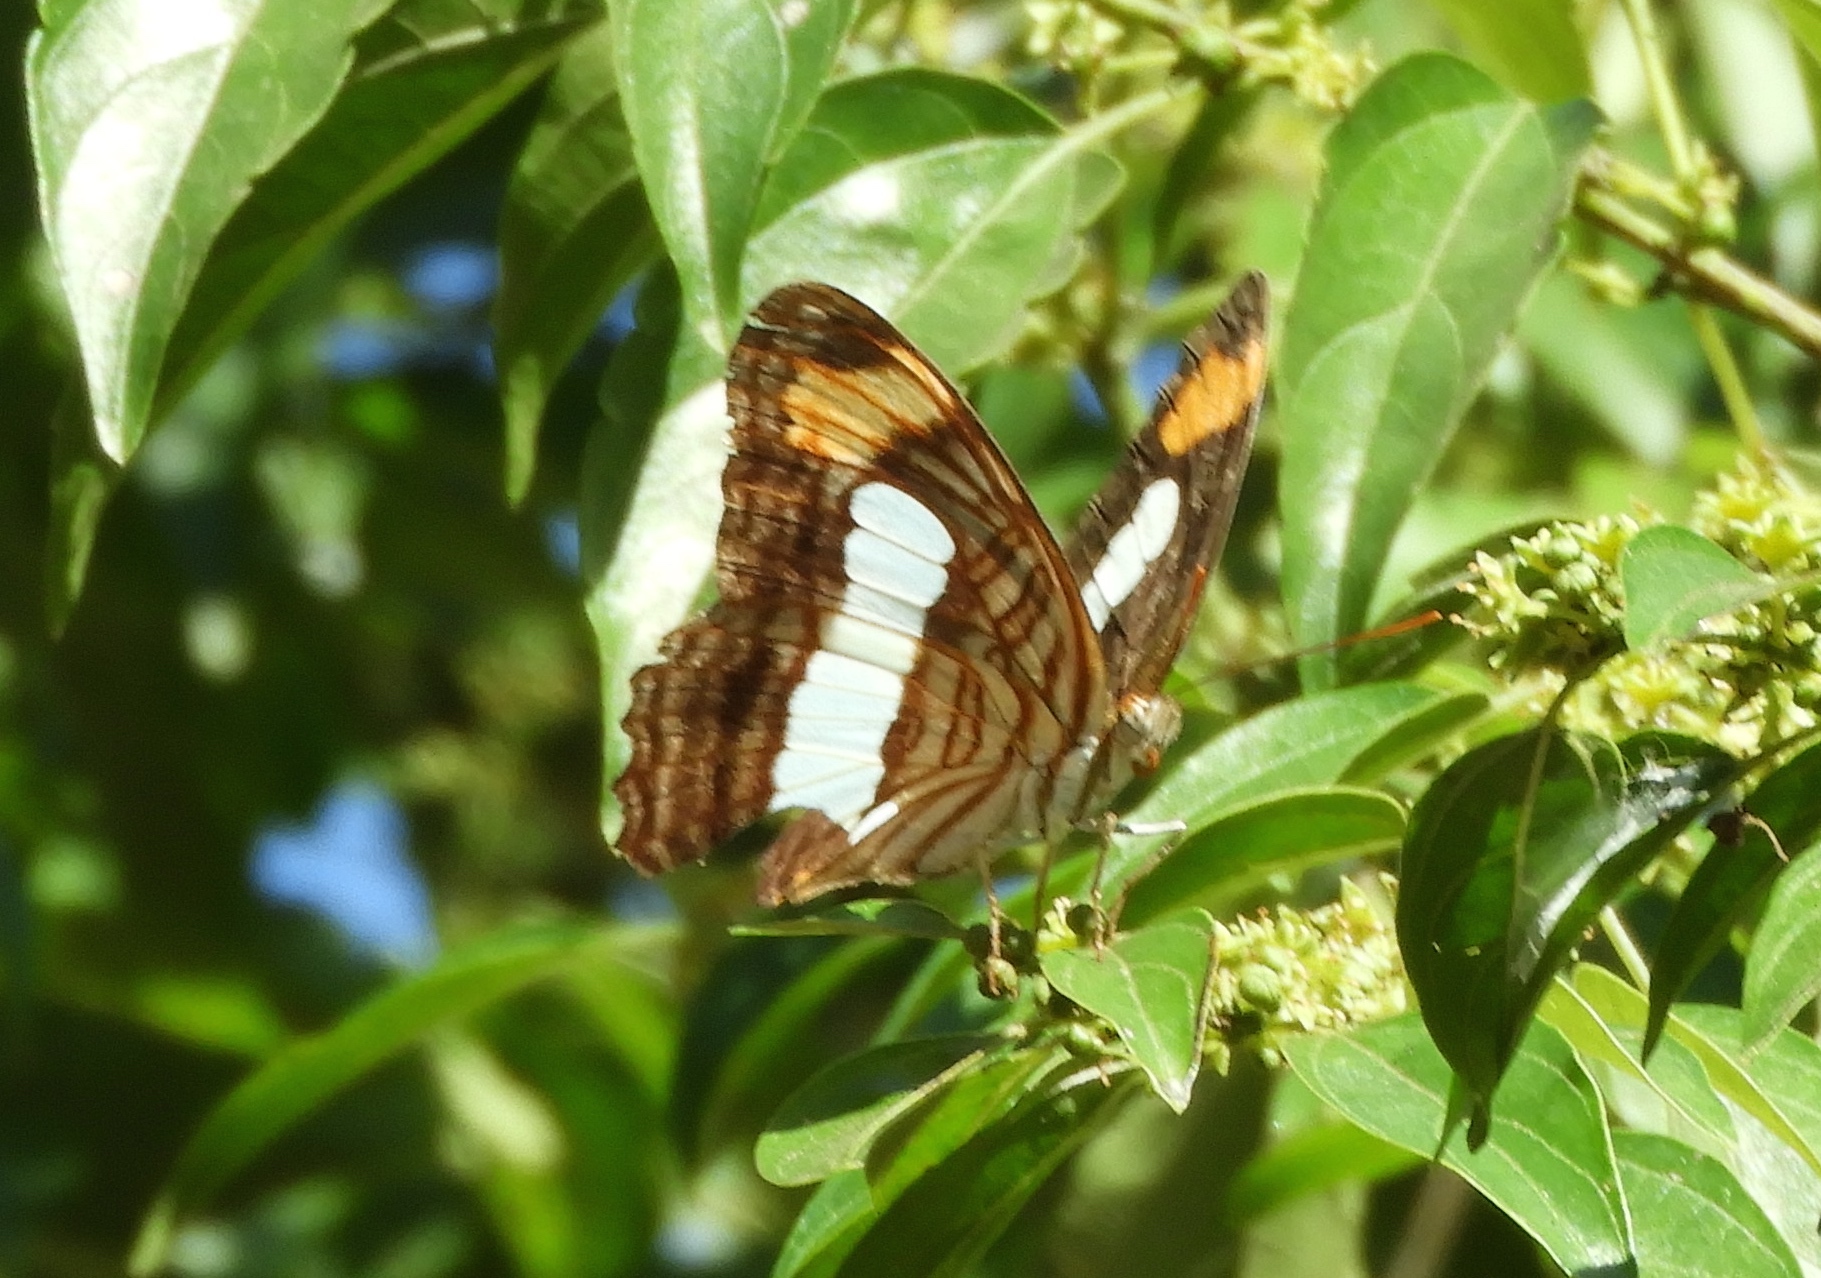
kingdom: Animalia
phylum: Arthropoda
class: Insecta
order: Lepidoptera
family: Nymphalidae
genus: Limenitis
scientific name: Limenitis iphiclus
